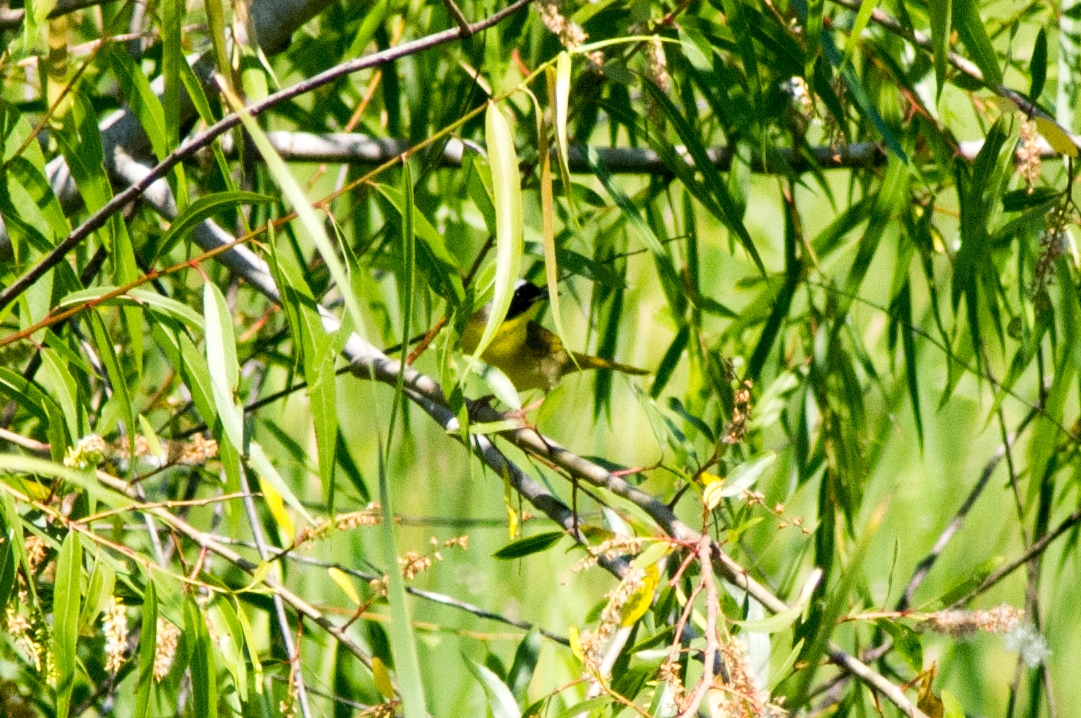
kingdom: Animalia
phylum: Chordata
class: Aves
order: Passeriformes
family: Parulidae
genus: Geothlypis
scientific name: Geothlypis trichas
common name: Common yellowthroat
